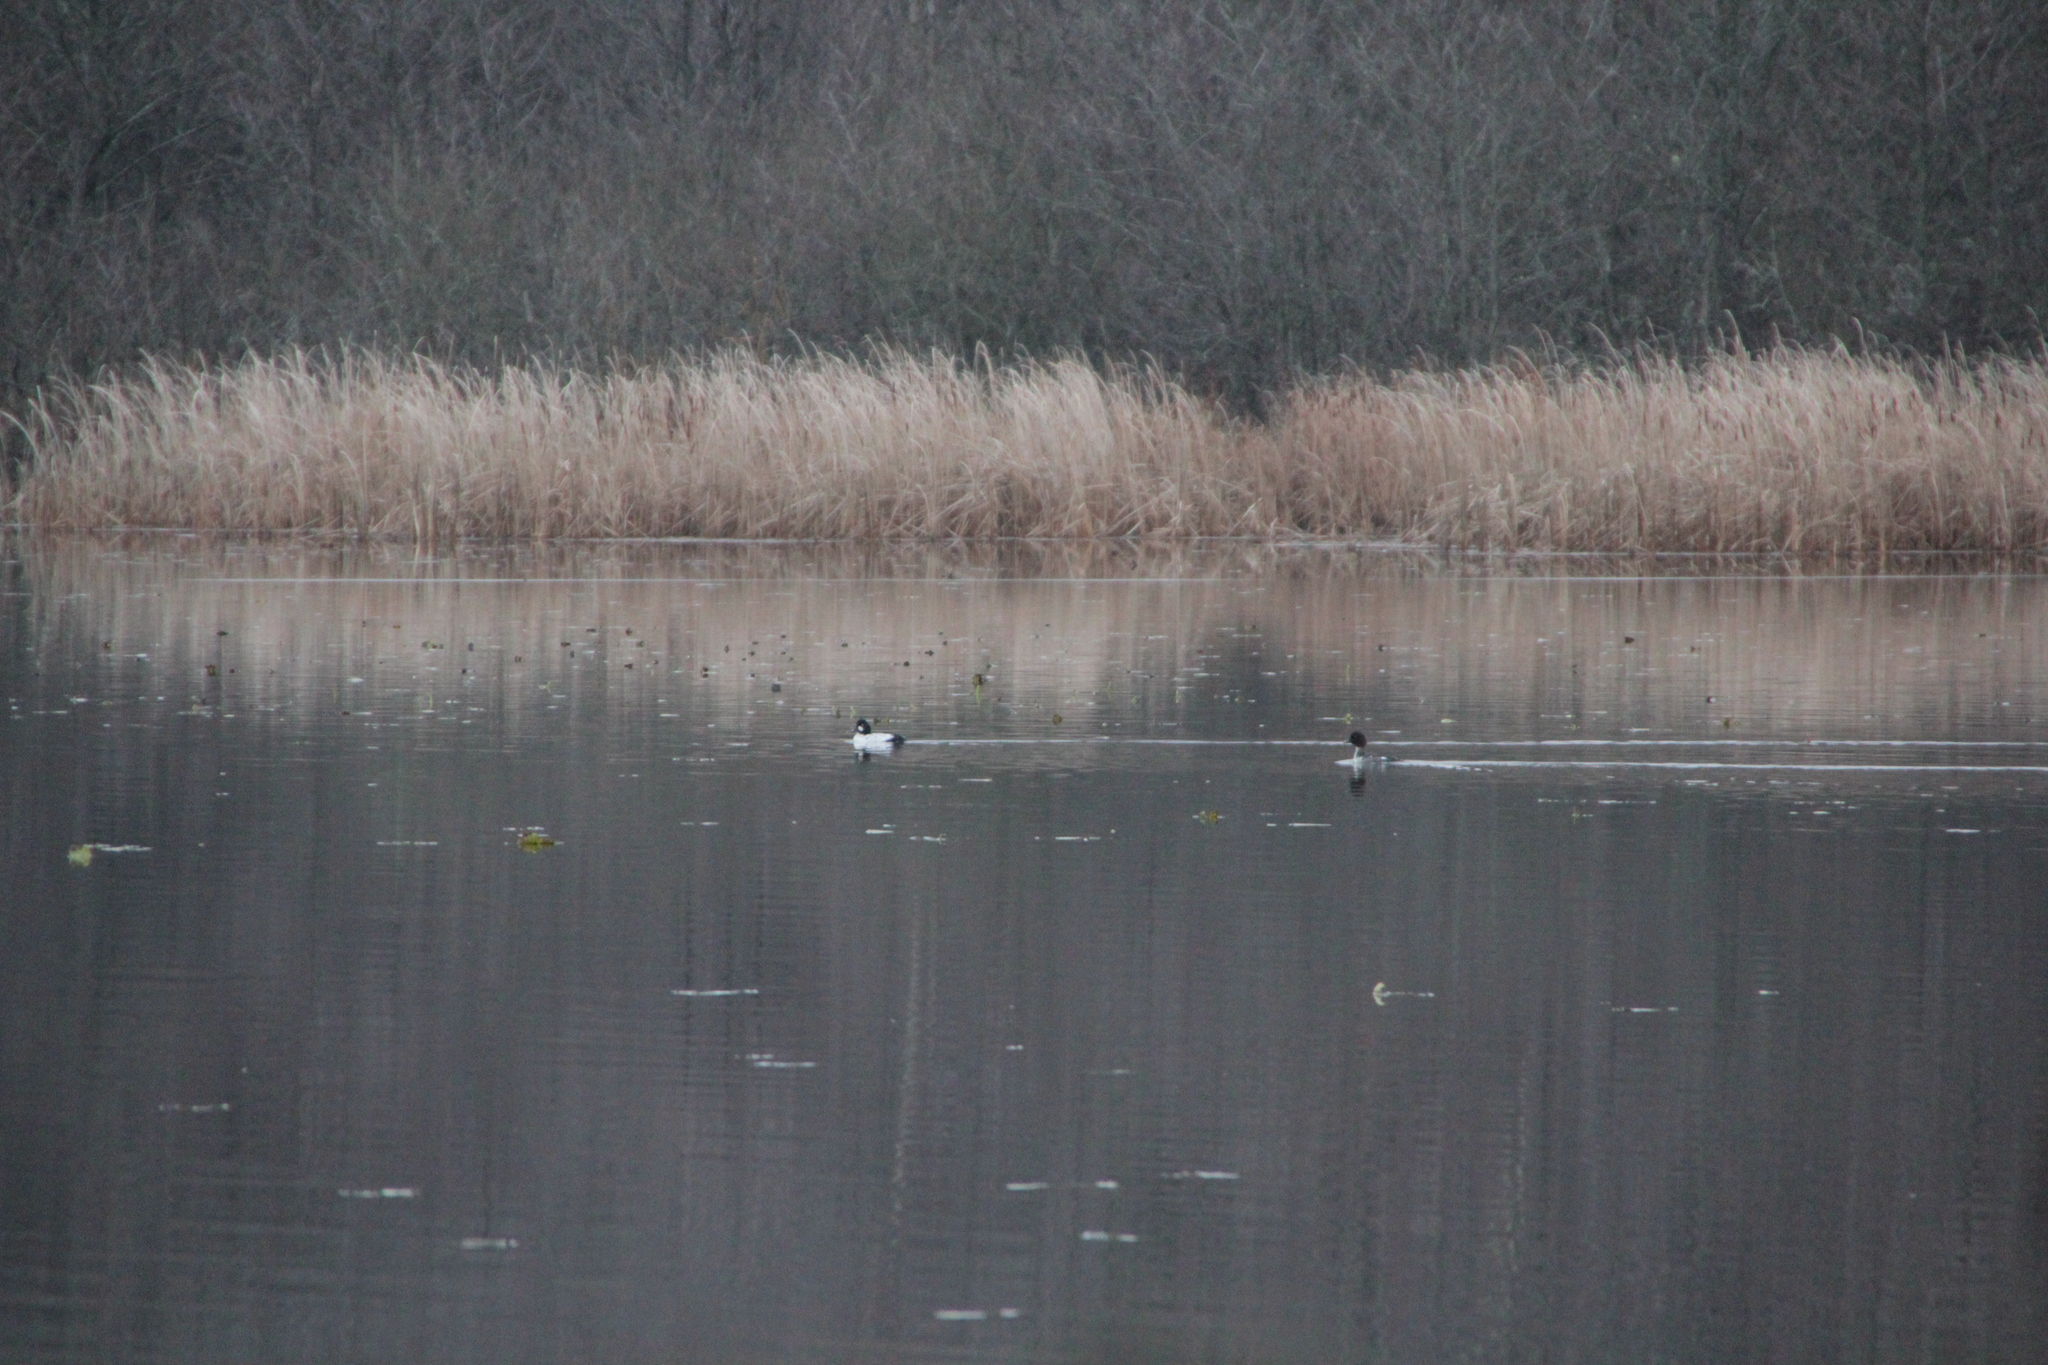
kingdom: Animalia
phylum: Chordata
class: Aves
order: Anseriformes
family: Anatidae
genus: Bucephala
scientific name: Bucephala clangula
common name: Common goldeneye
